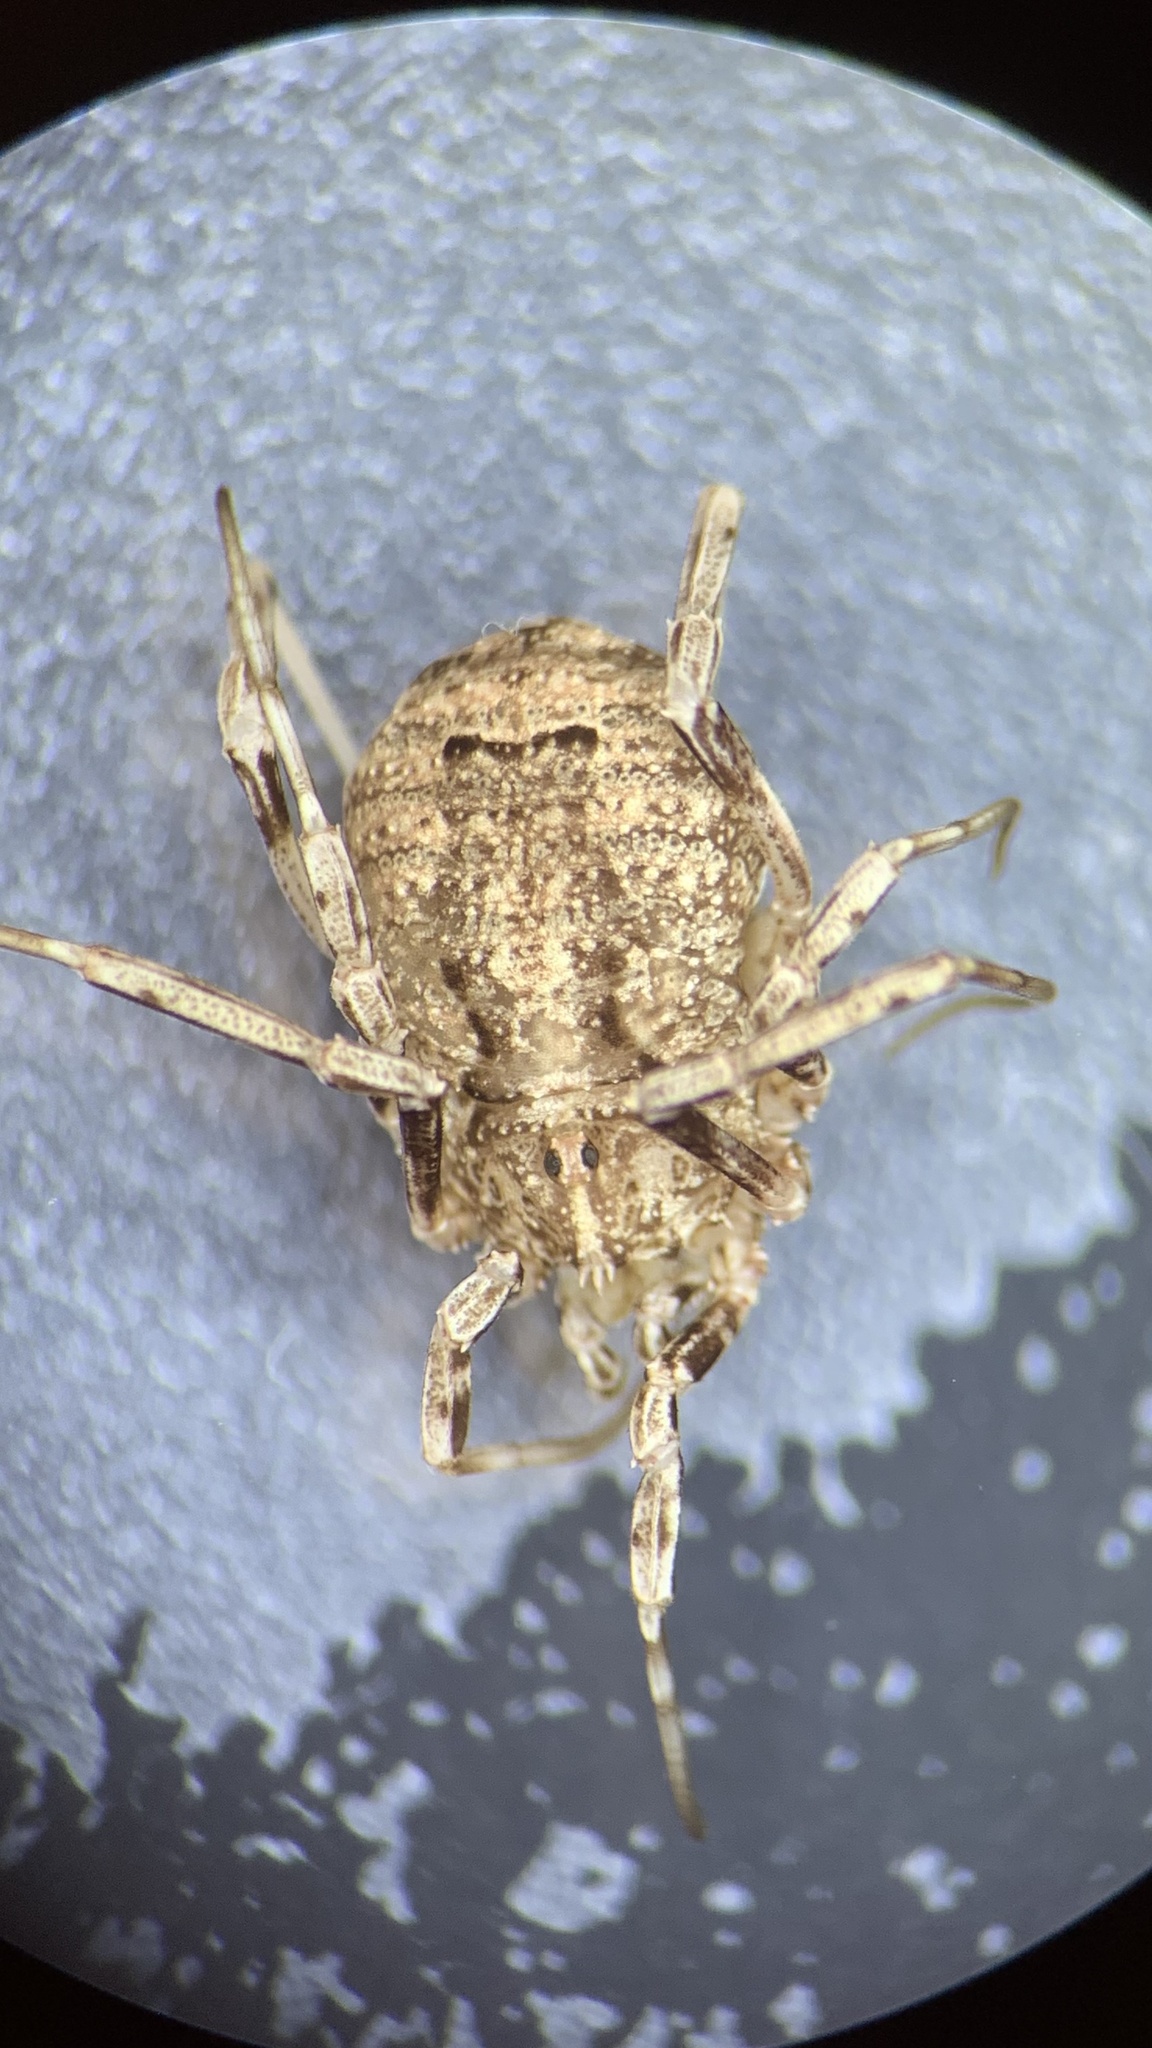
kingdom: Animalia
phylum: Arthropoda
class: Arachnida
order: Opiliones
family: Phalangiidae
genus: Odiellus
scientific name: Odiellus spinosus
